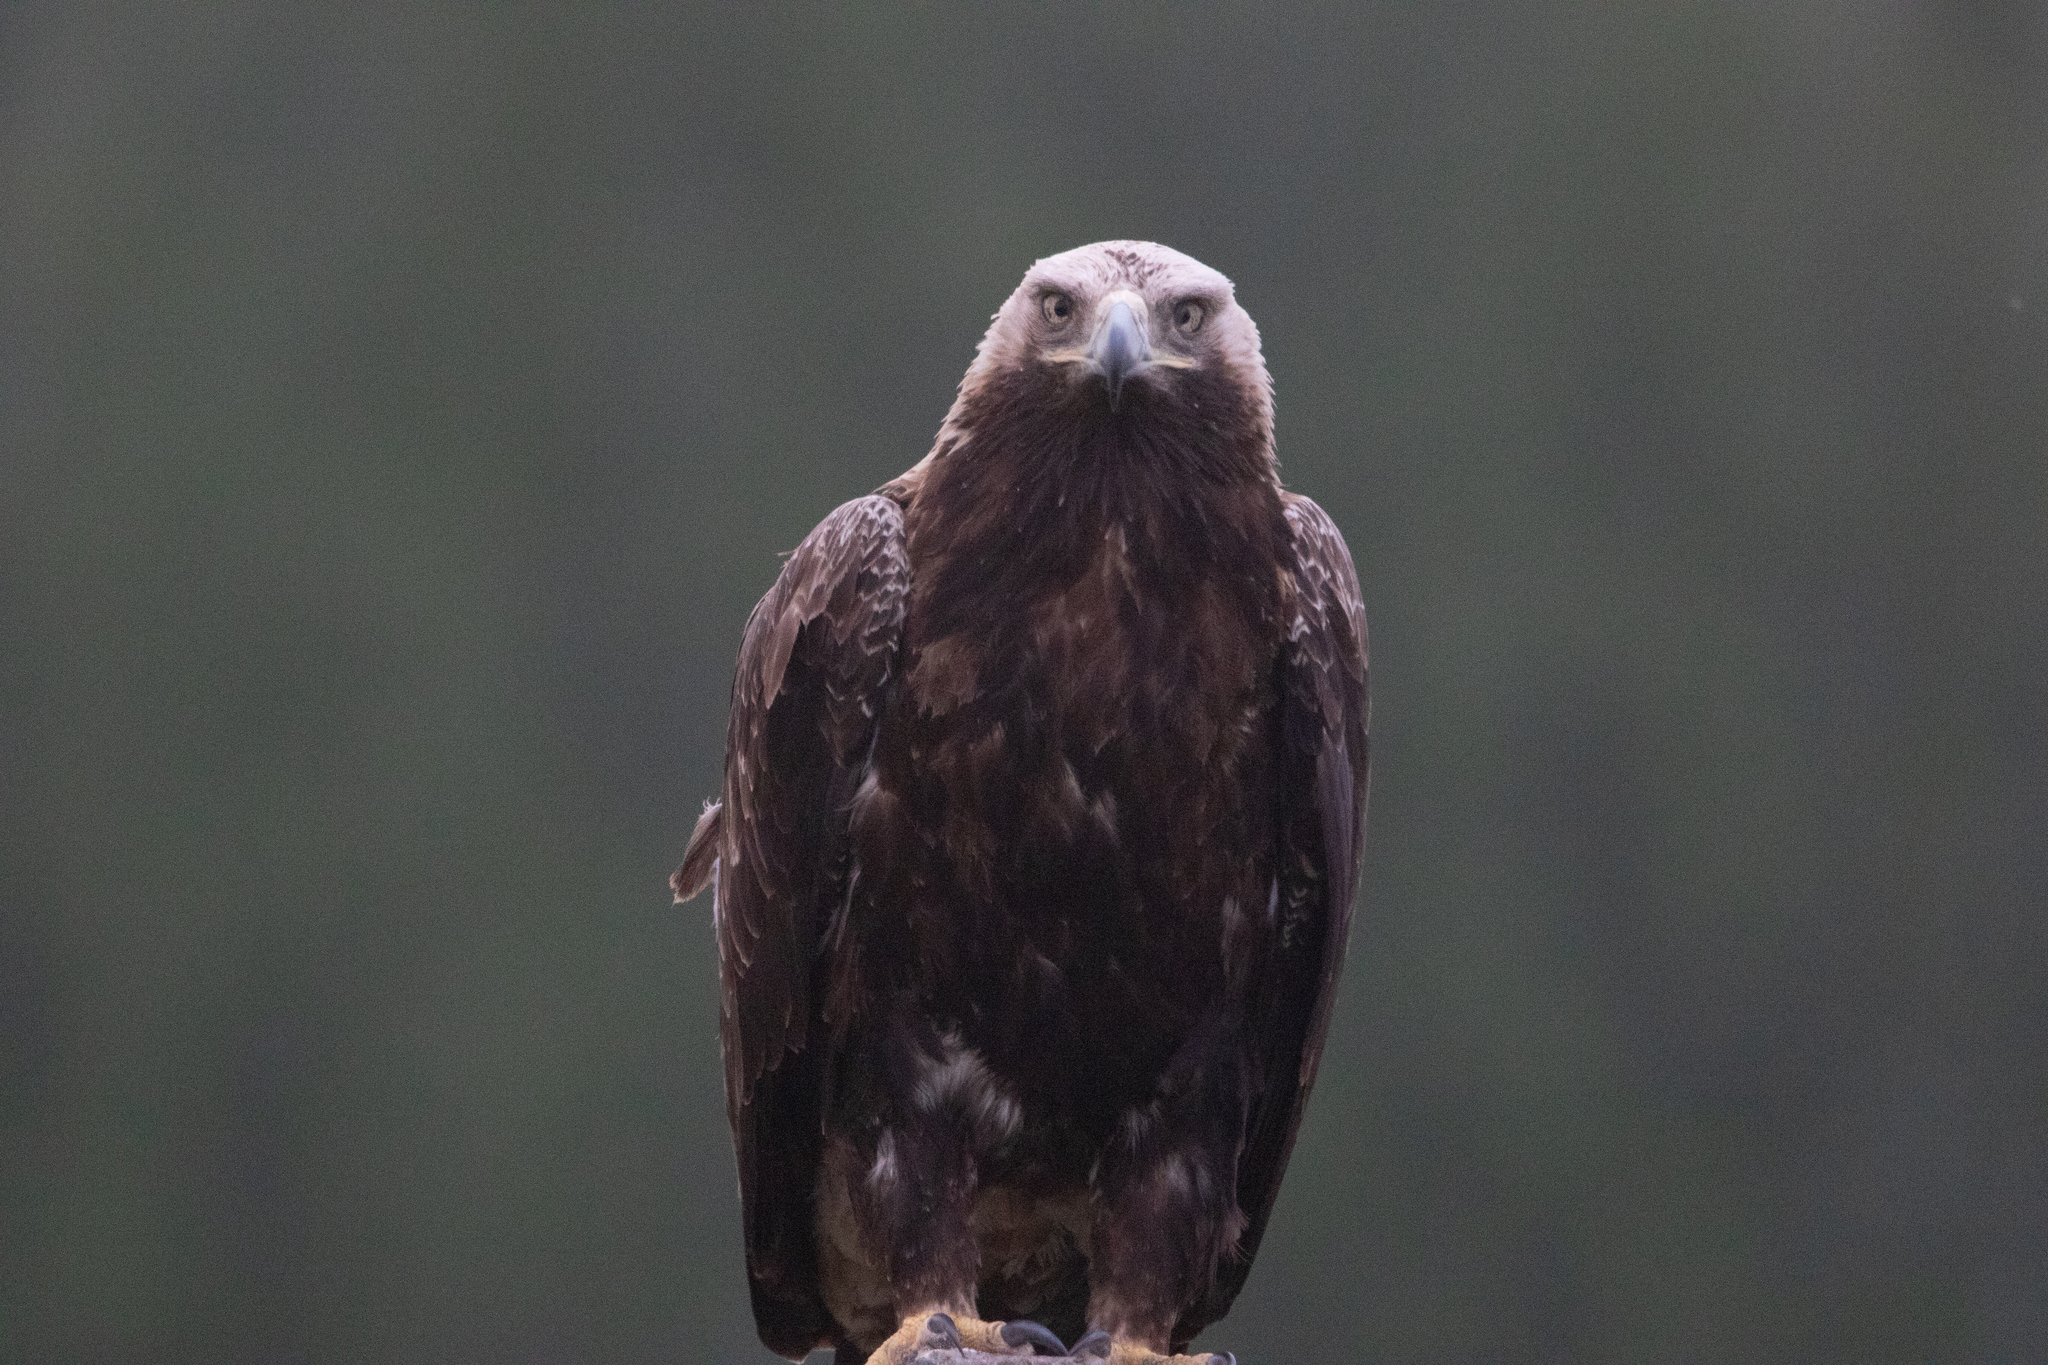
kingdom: Animalia
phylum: Chordata
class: Aves
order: Accipitriformes
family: Accipitridae
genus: Aquila
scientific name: Aquila heliaca
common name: Eastern imperial eagle
